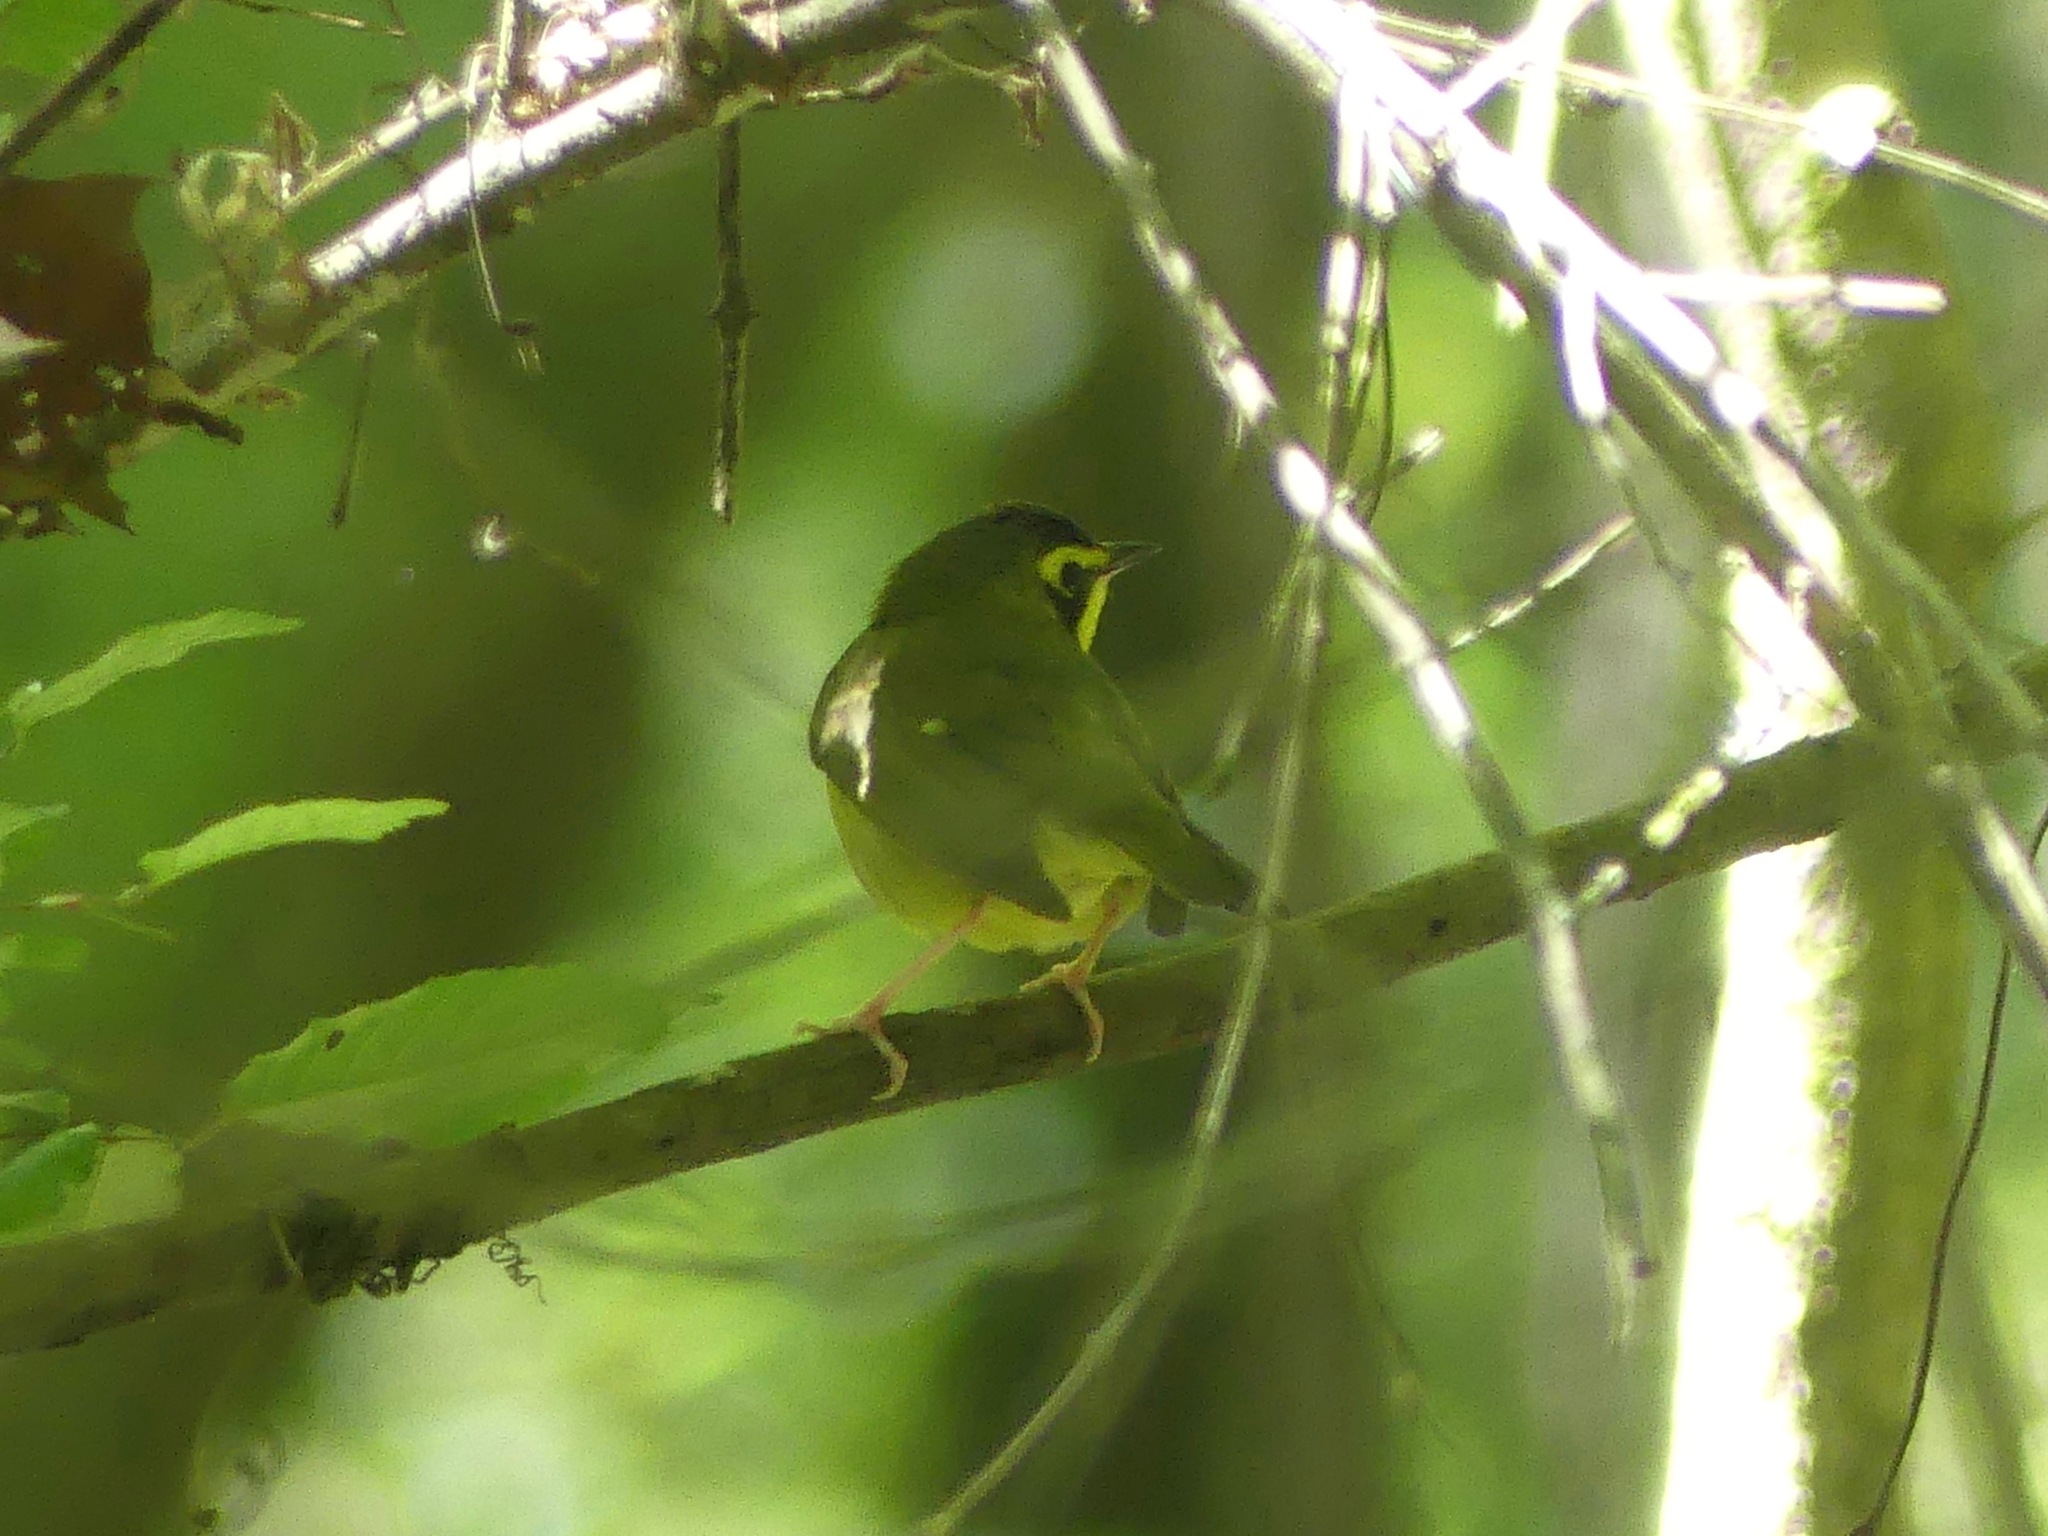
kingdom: Animalia
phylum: Chordata
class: Aves
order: Passeriformes
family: Parulidae
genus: Geothlypis
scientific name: Geothlypis formosa
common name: Kentucky warbler
